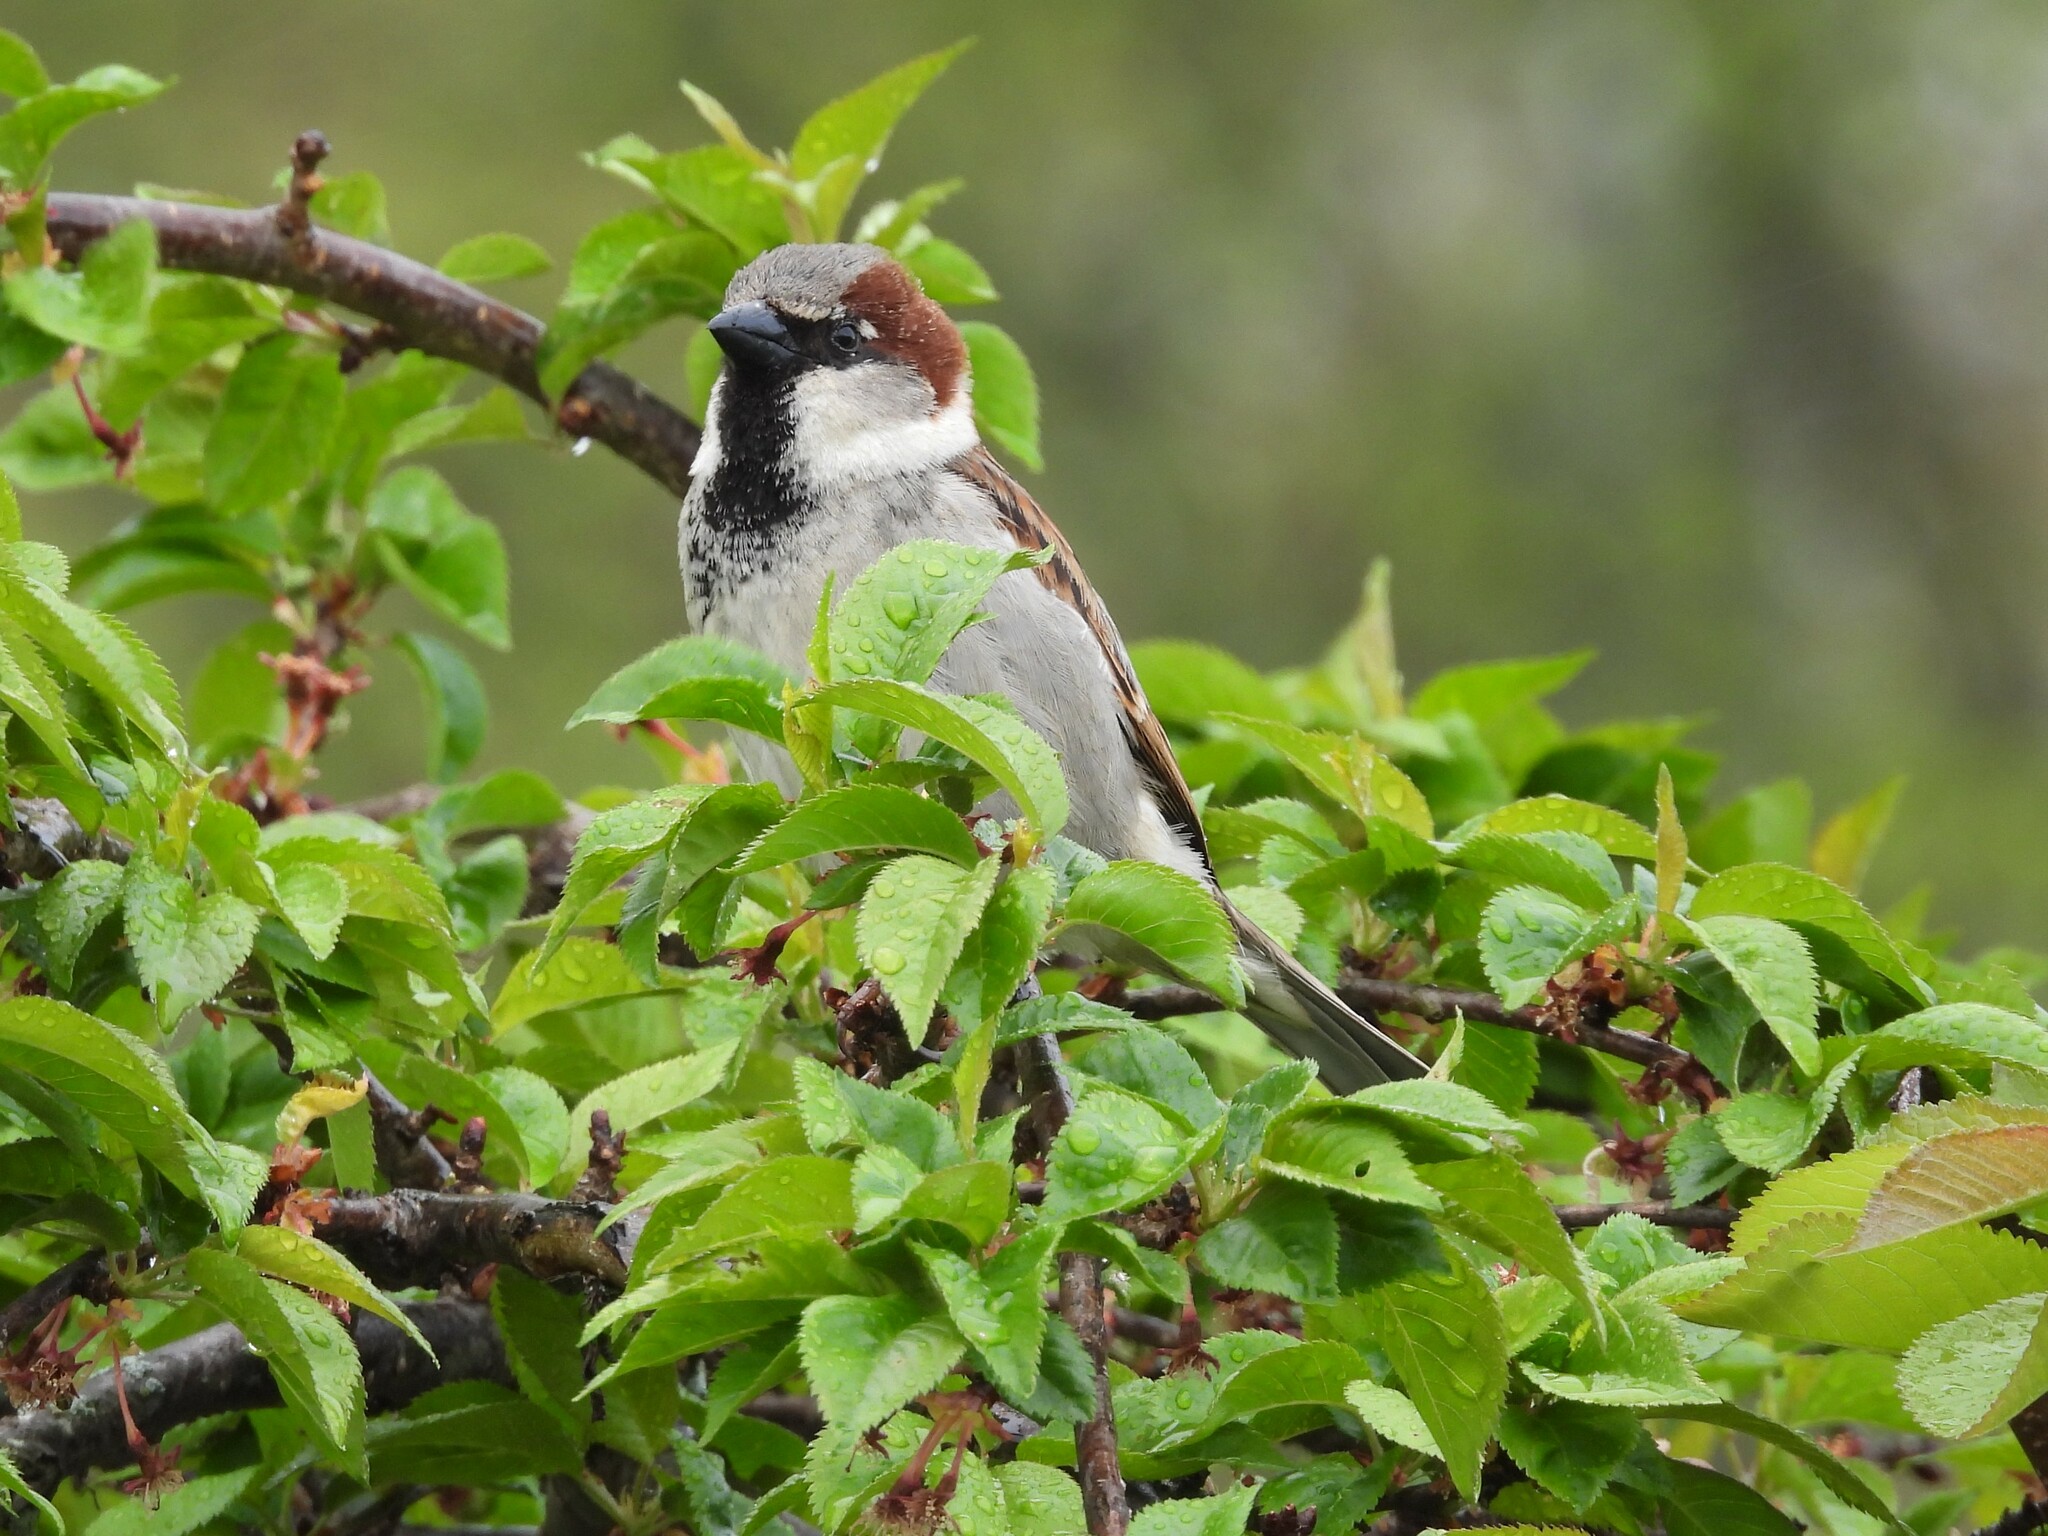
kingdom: Animalia
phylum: Chordata
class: Aves
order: Passeriformes
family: Passeridae
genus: Passer
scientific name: Passer domesticus
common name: House sparrow
